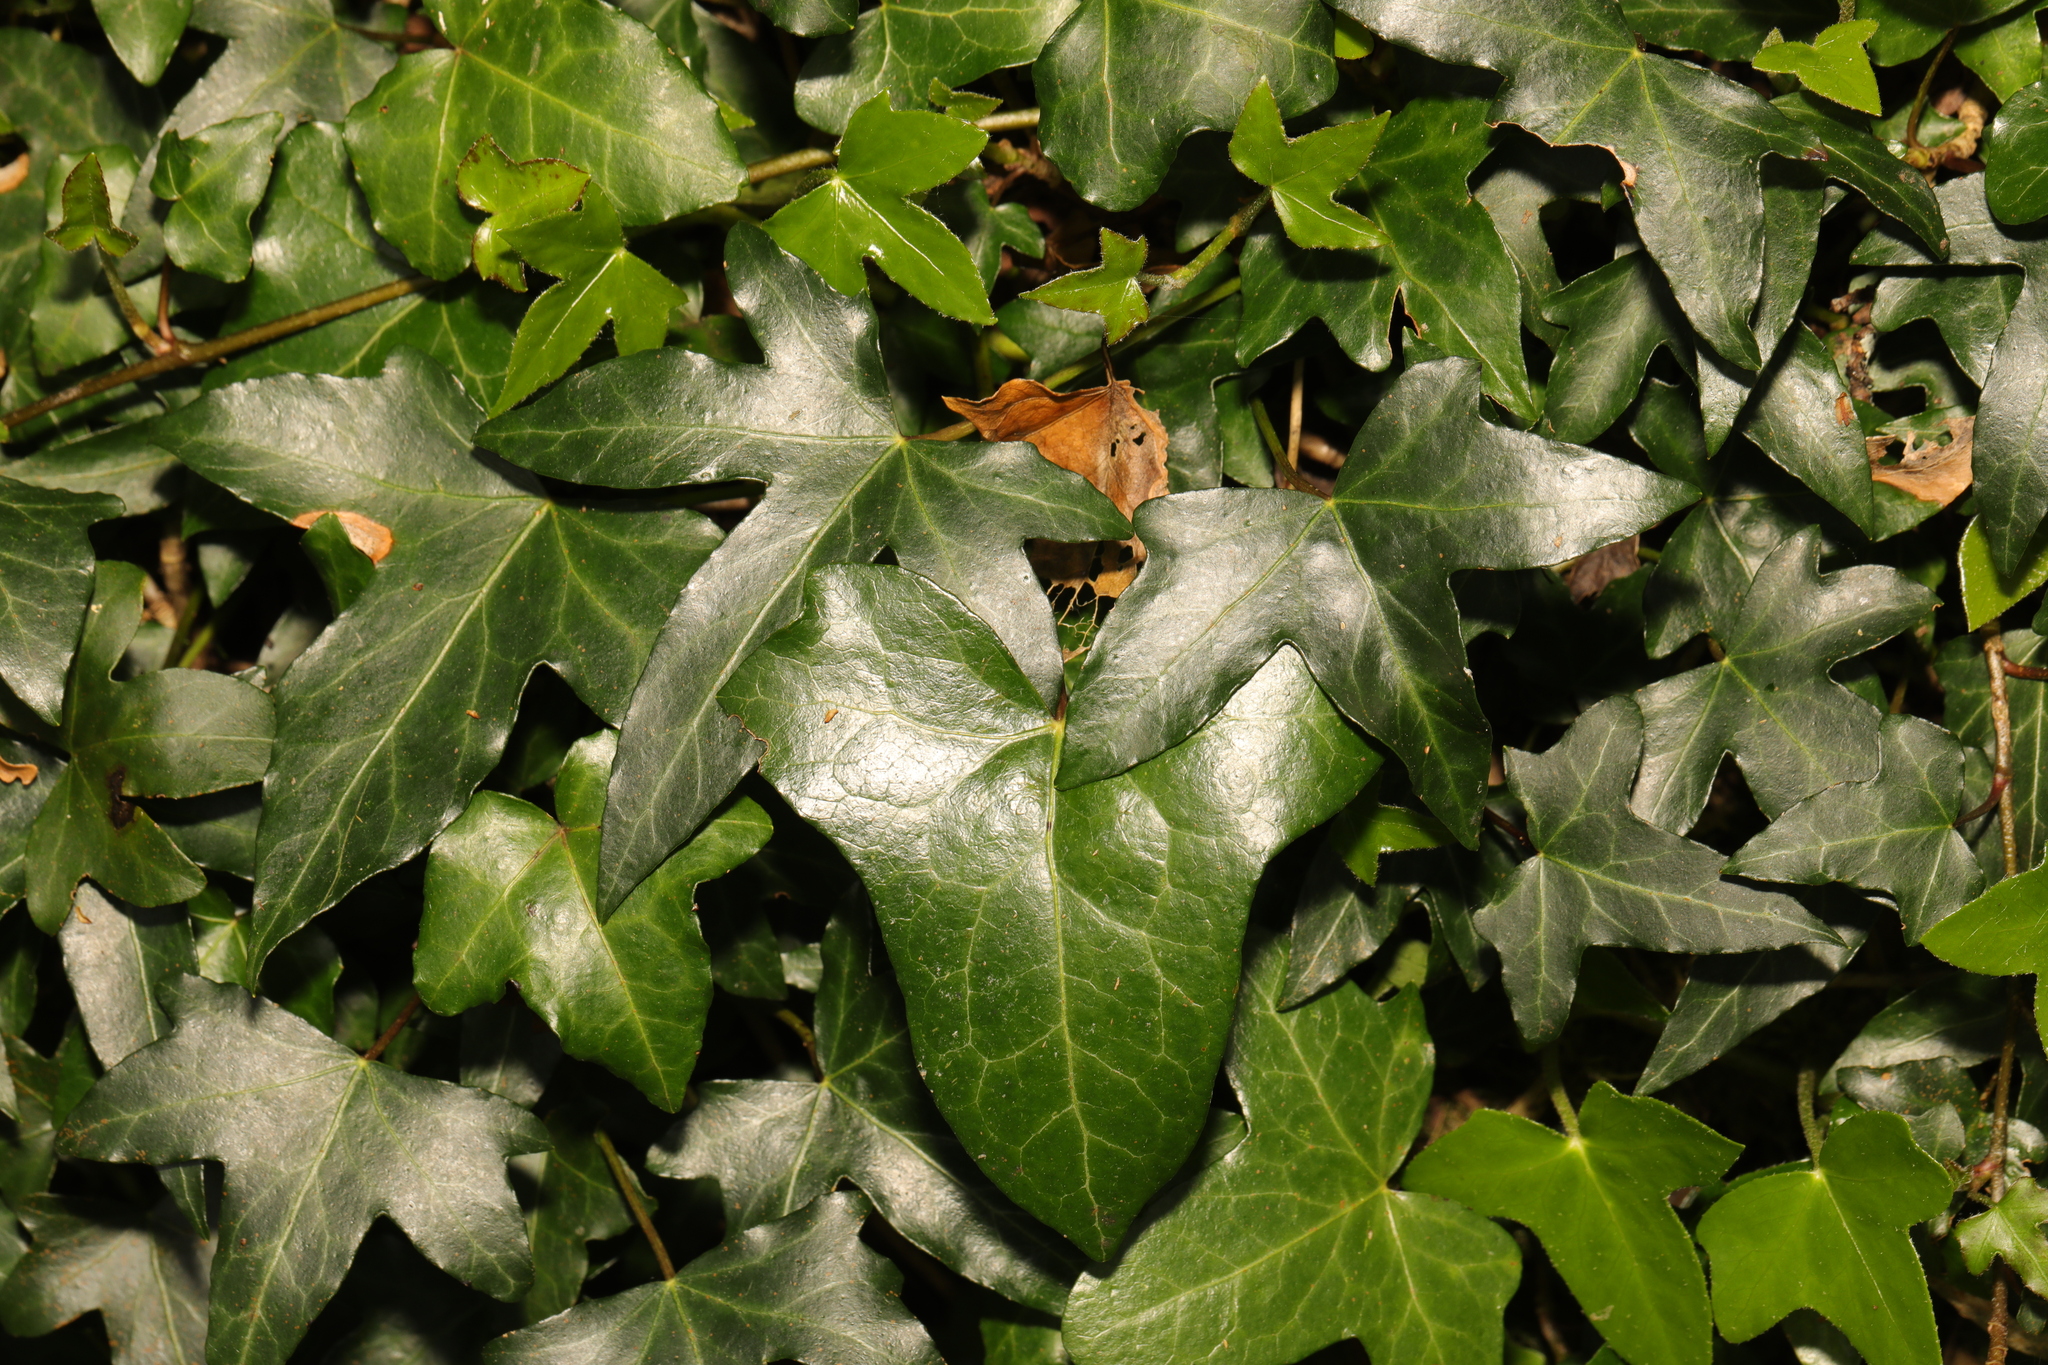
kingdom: Plantae
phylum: Tracheophyta
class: Magnoliopsida
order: Apiales
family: Araliaceae
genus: Hedera
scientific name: Hedera helix
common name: Ivy
